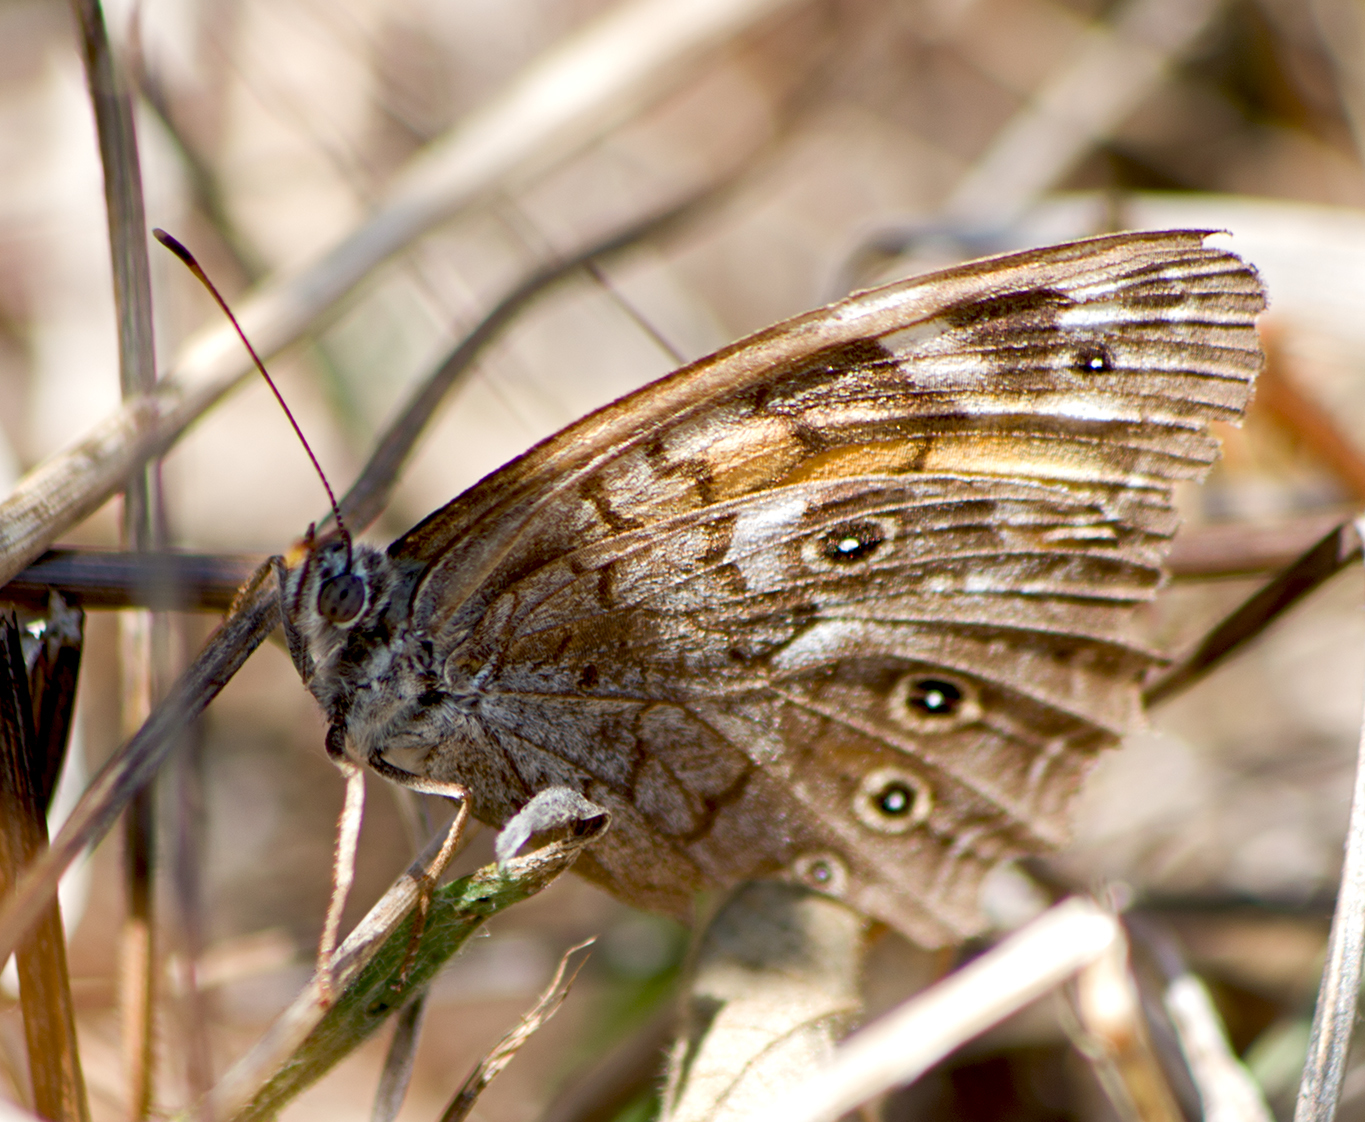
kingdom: Animalia
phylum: Arthropoda
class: Insecta
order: Lepidoptera
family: Nymphalidae
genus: Kirinia
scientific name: Kirinia roxelana
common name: Lattice brown
